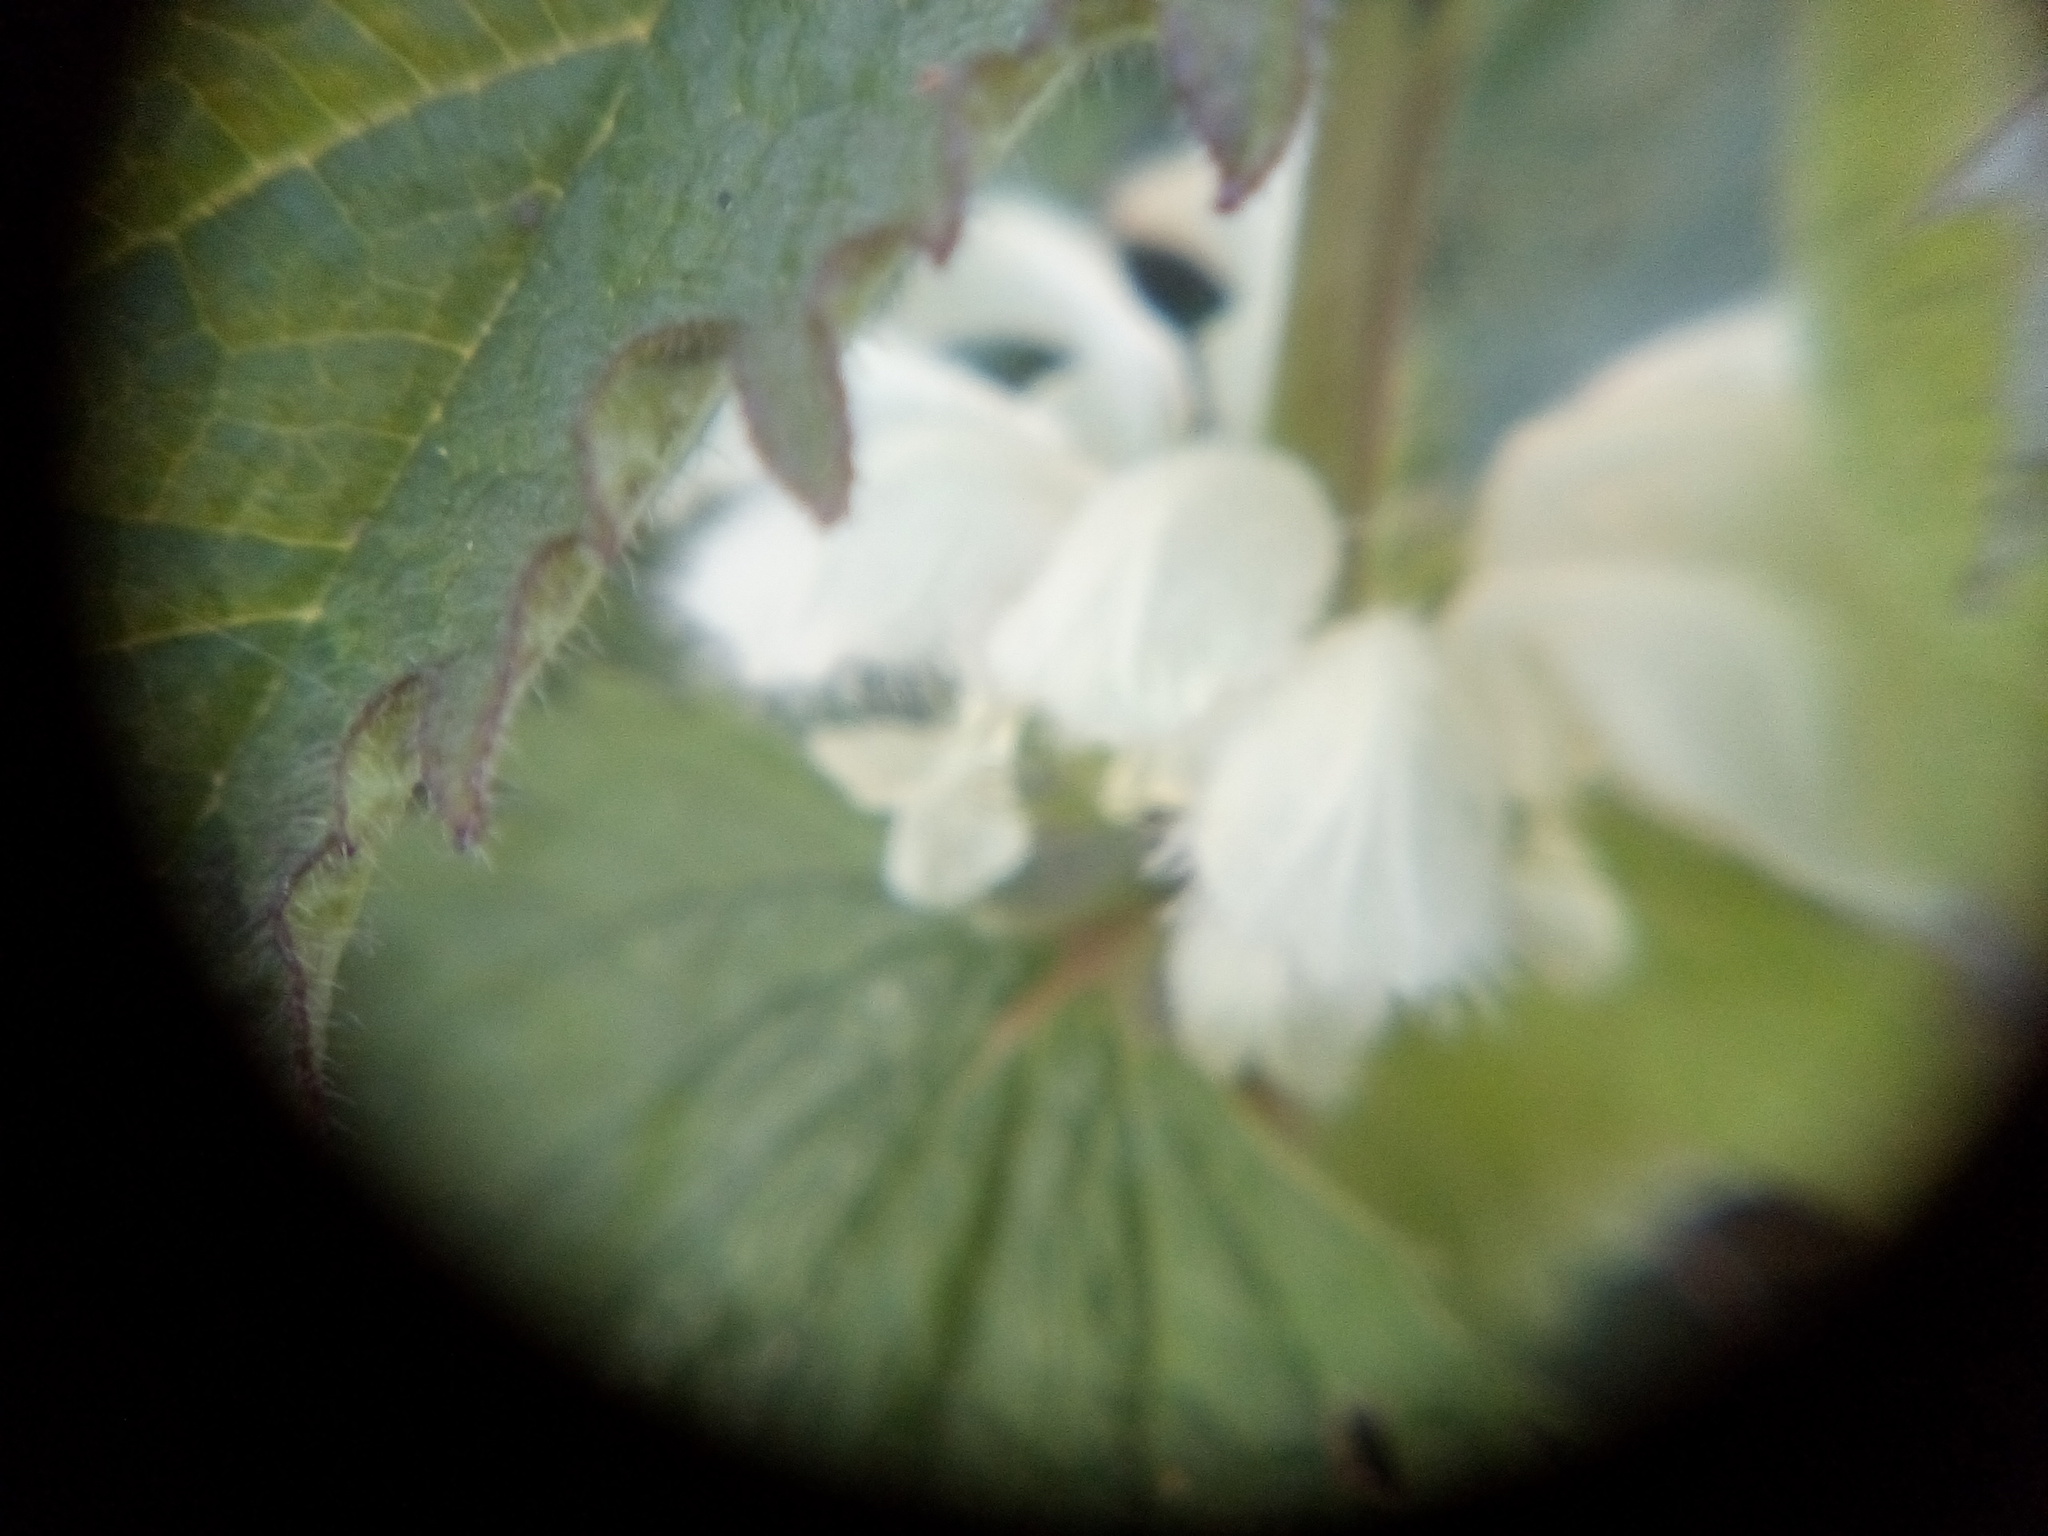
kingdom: Plantae
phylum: Tracheophyta
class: Magnoliopsida
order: Lamiales
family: Lamiaceae
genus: Lamium
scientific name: Lamium album
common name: White dead-nettle
